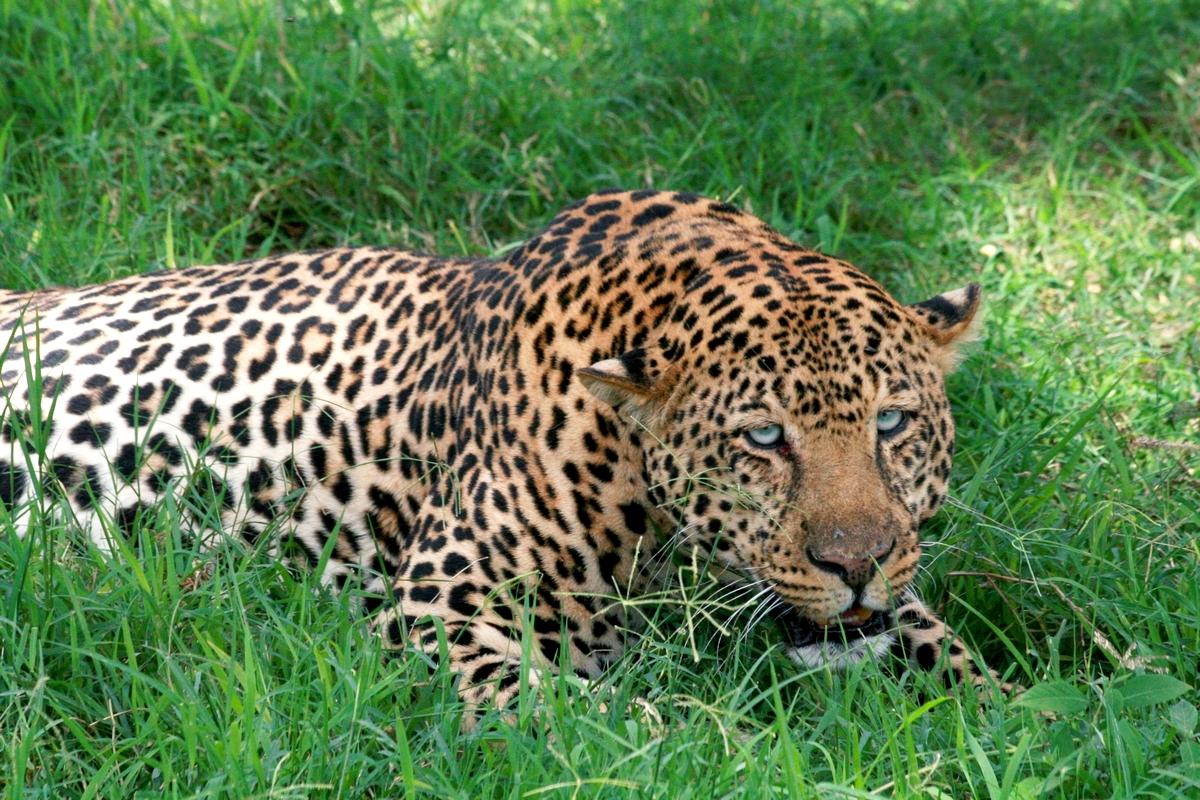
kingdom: Animalia
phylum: Chordata
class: Mammalia
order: Carnivora
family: Felidae
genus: Panthera
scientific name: Panthera pardus
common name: Leopard
